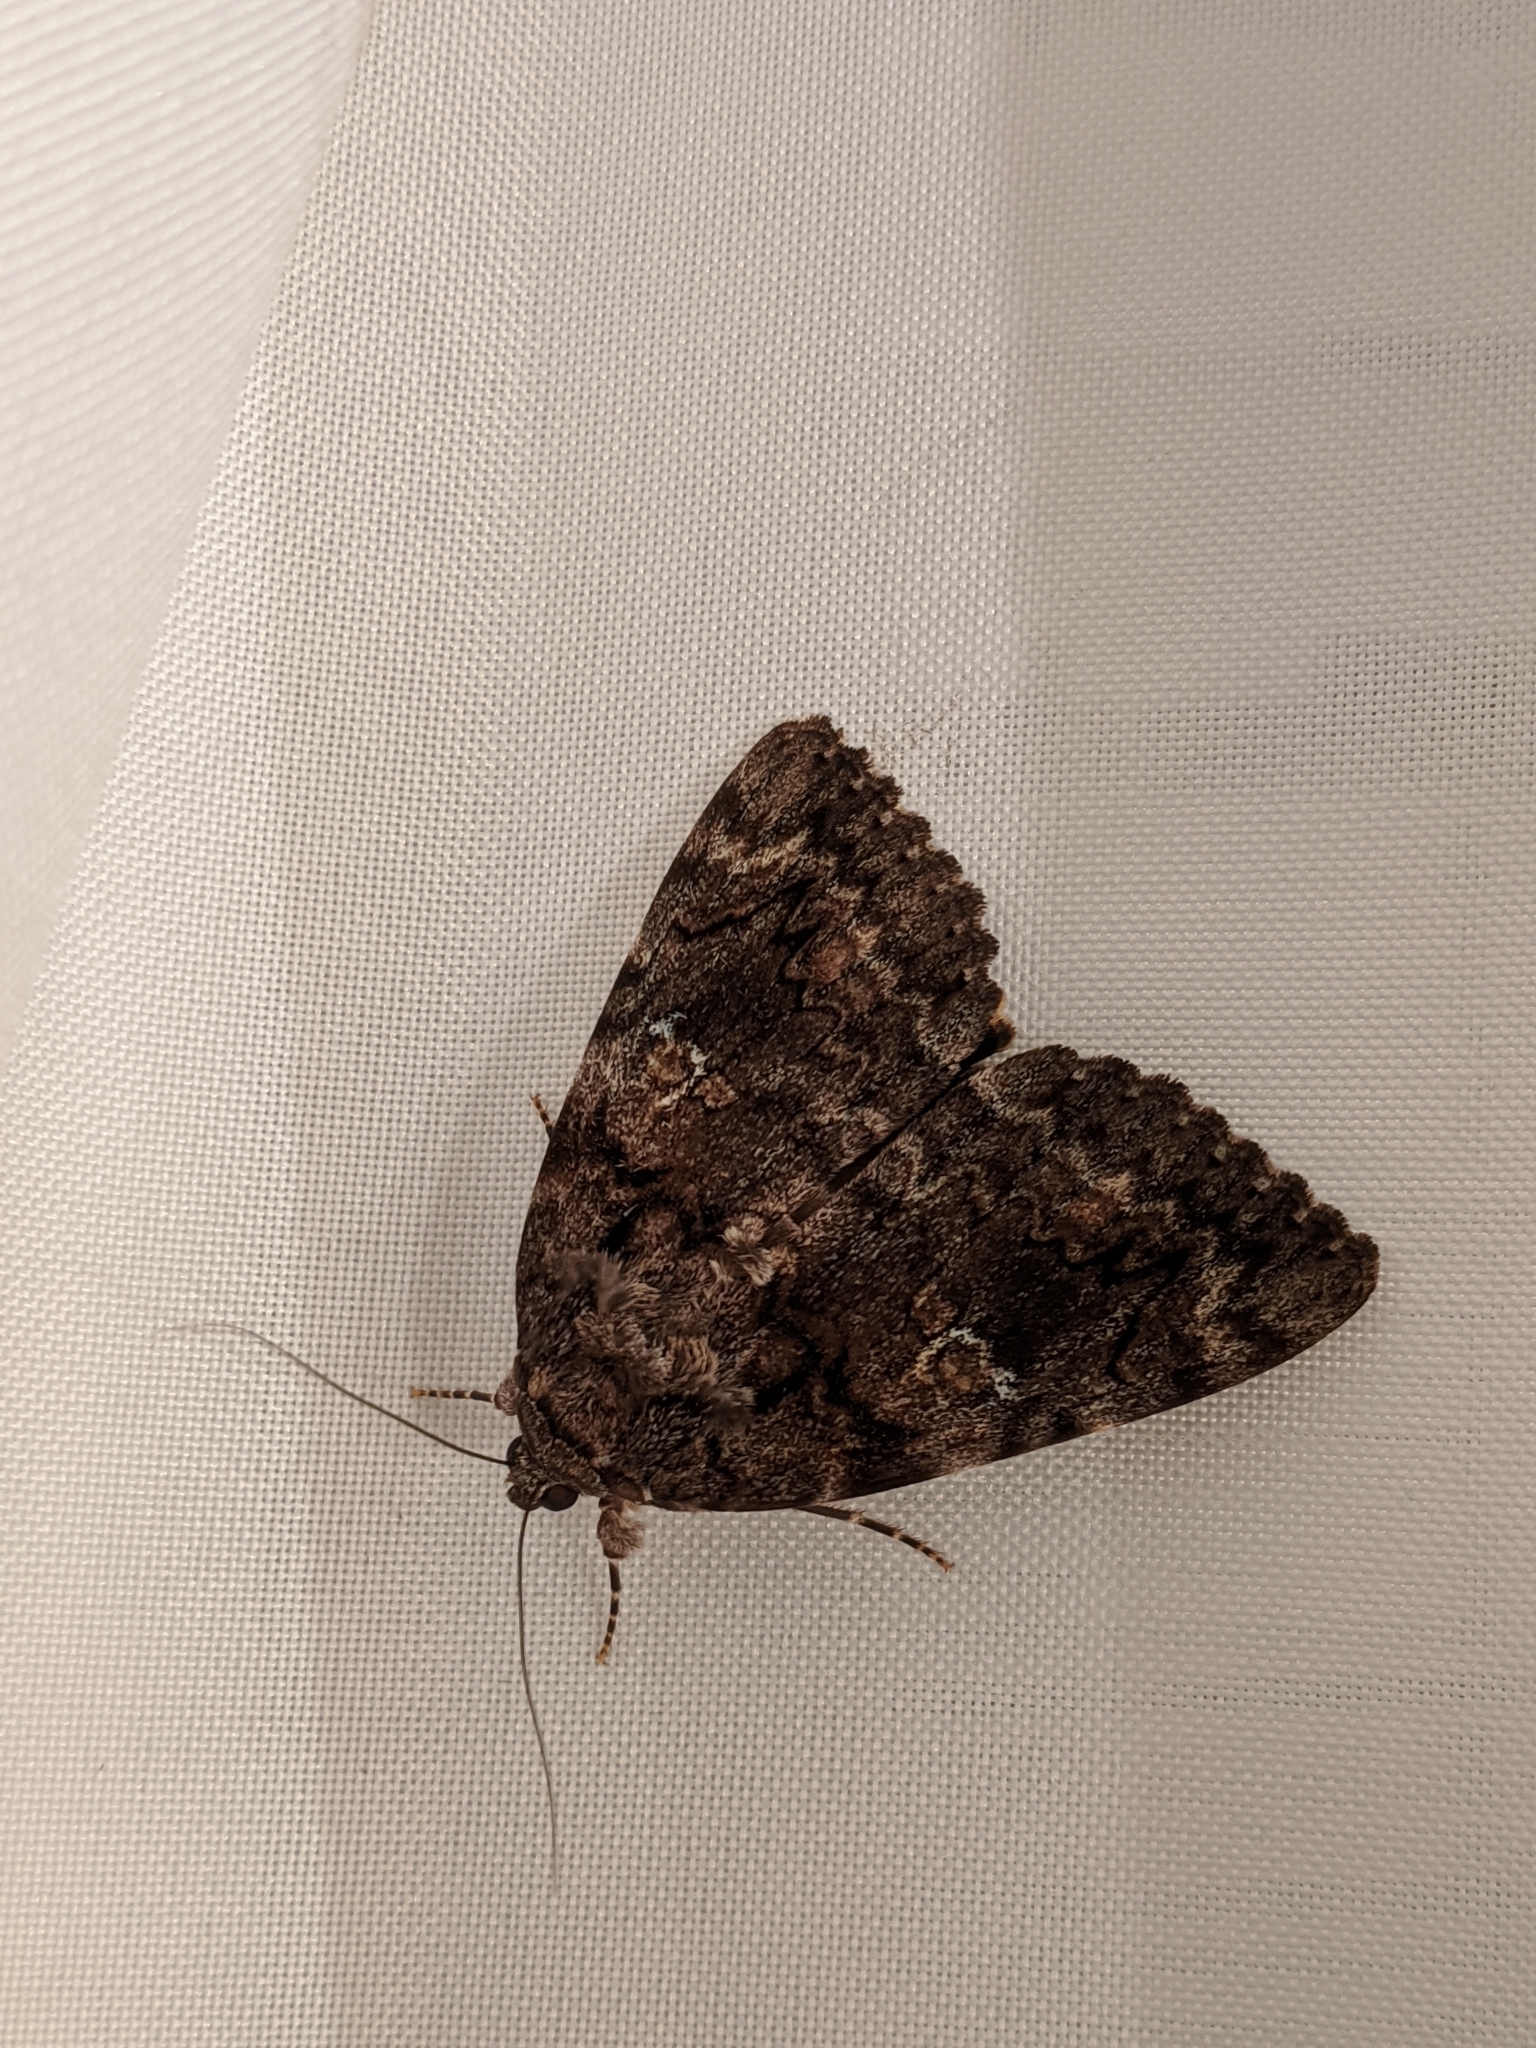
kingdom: Animalia
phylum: Arthropoda
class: Insecta
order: Lepidoptera
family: Erebidae
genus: Catocala
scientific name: Catocala ilia
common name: Ilia underwing
